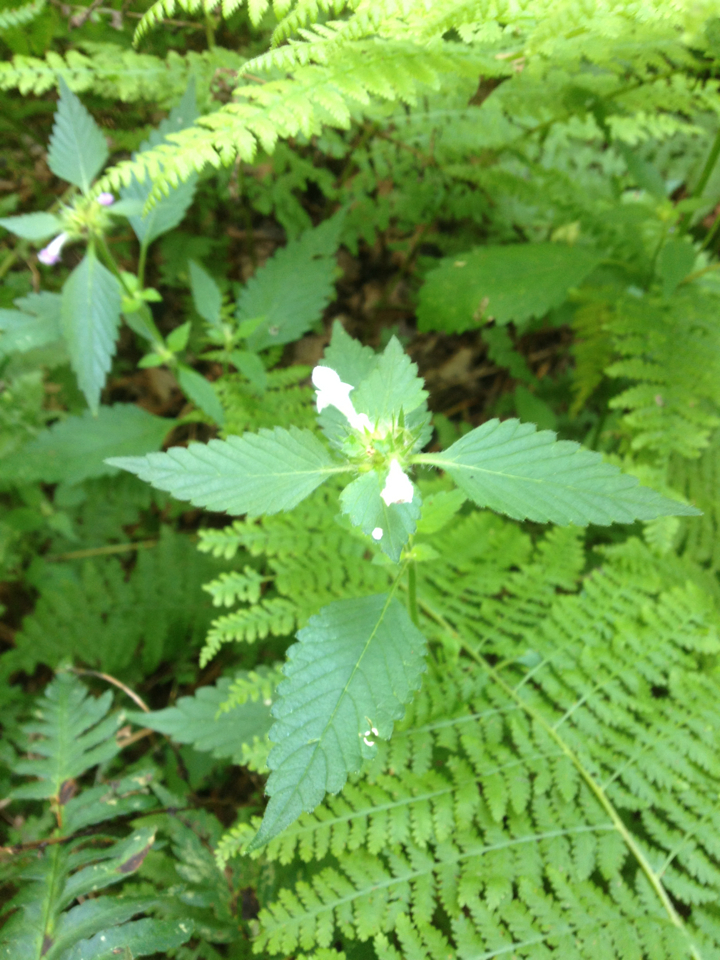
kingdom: Plantae
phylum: Tracheophyta
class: Magnoliopsida
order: Lamiales
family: Lamiaceae
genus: Galeopsis
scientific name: Galeopsis bifida
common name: Bifid hemp-nettle
